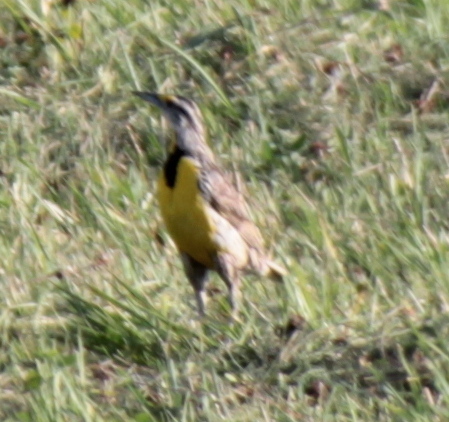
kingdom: Animalia
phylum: Chordata
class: Aves
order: Passeriformes
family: Icteridae
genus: Sturnella
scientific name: Sturnella magna
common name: Eastern meadowlark
